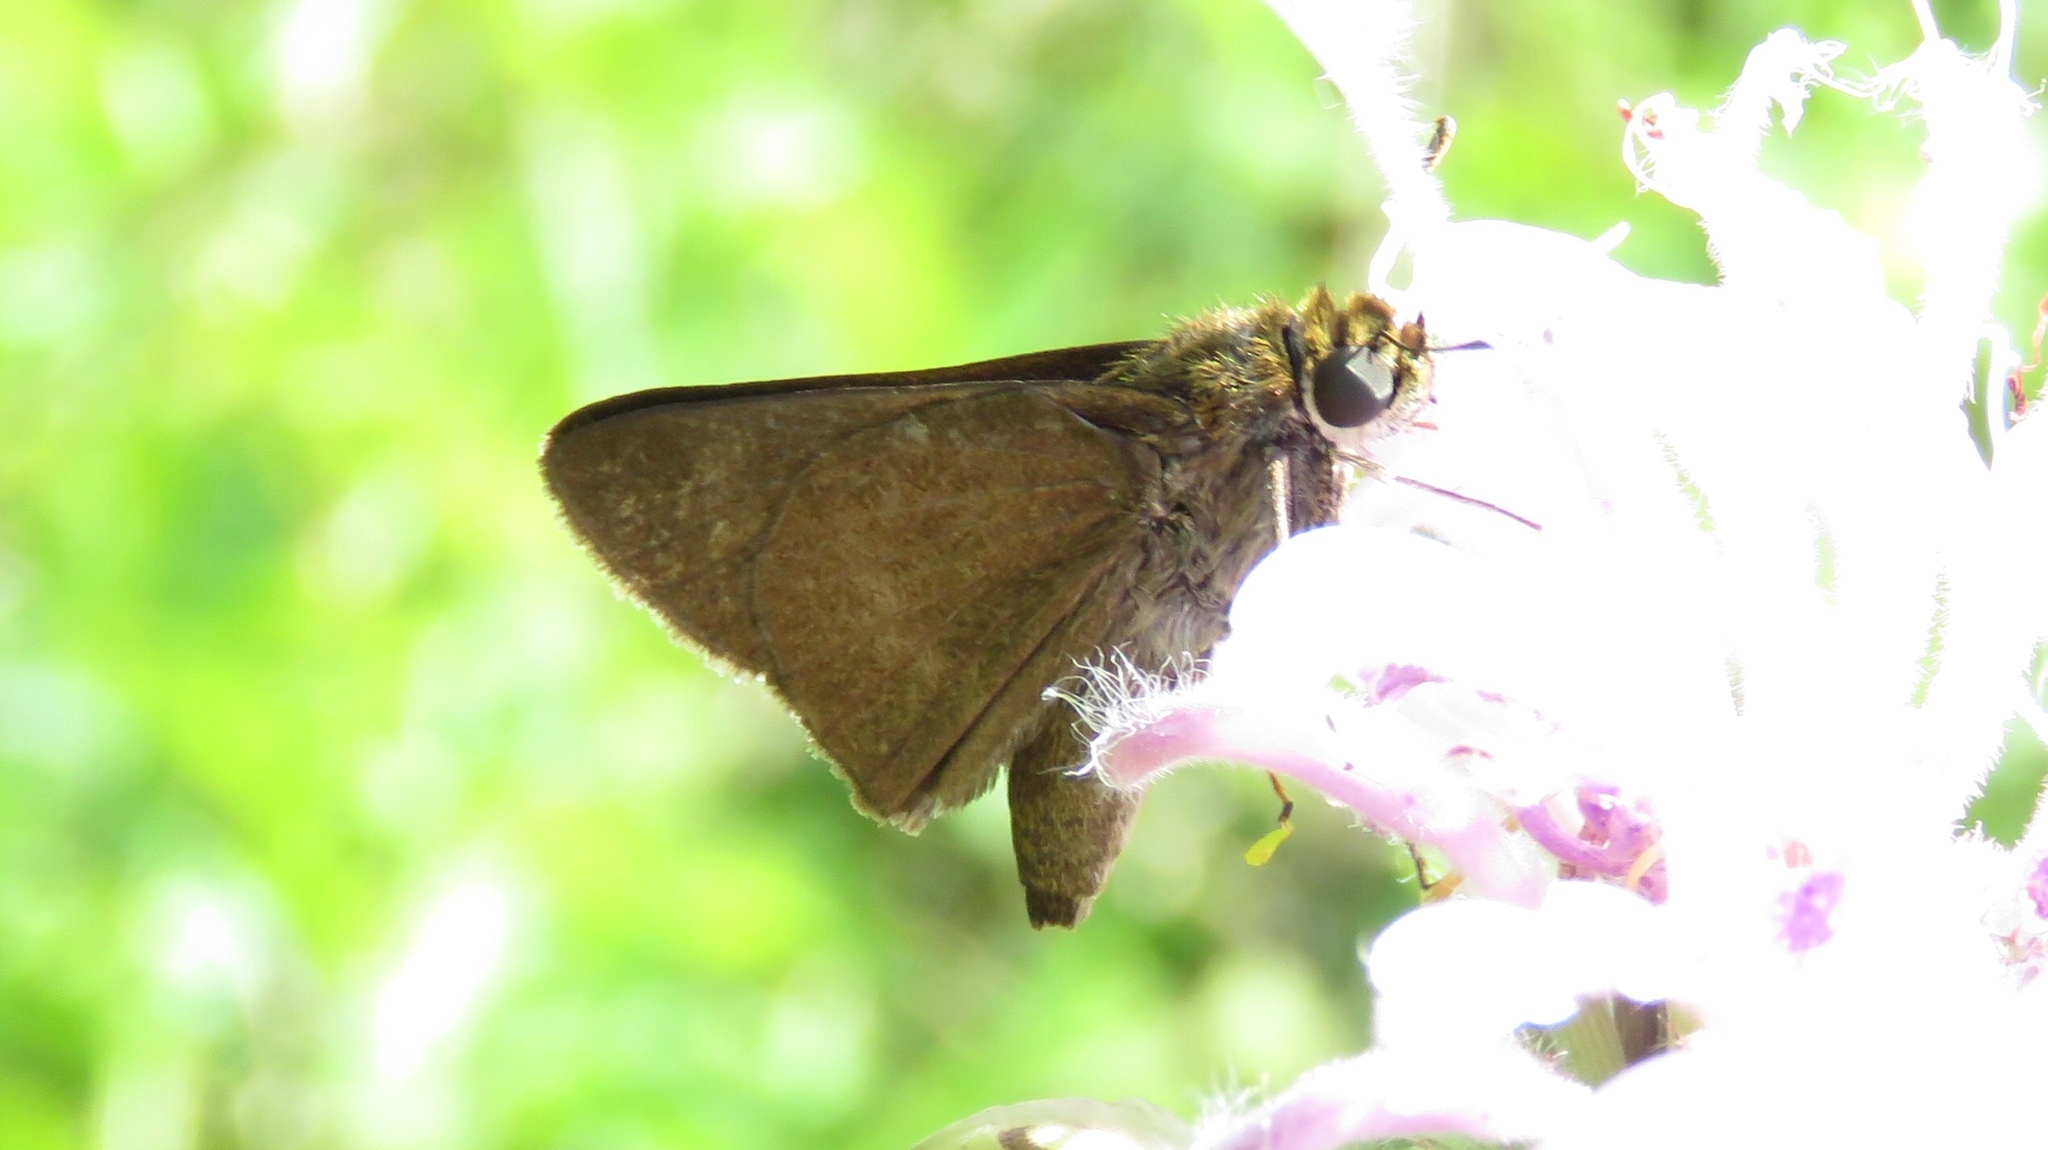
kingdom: Animalia
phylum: Arthropoda
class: Insecta
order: Lepidoptera
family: Hesperiidae
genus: Euphyes
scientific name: Euphyes vestris
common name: Dun skipper
